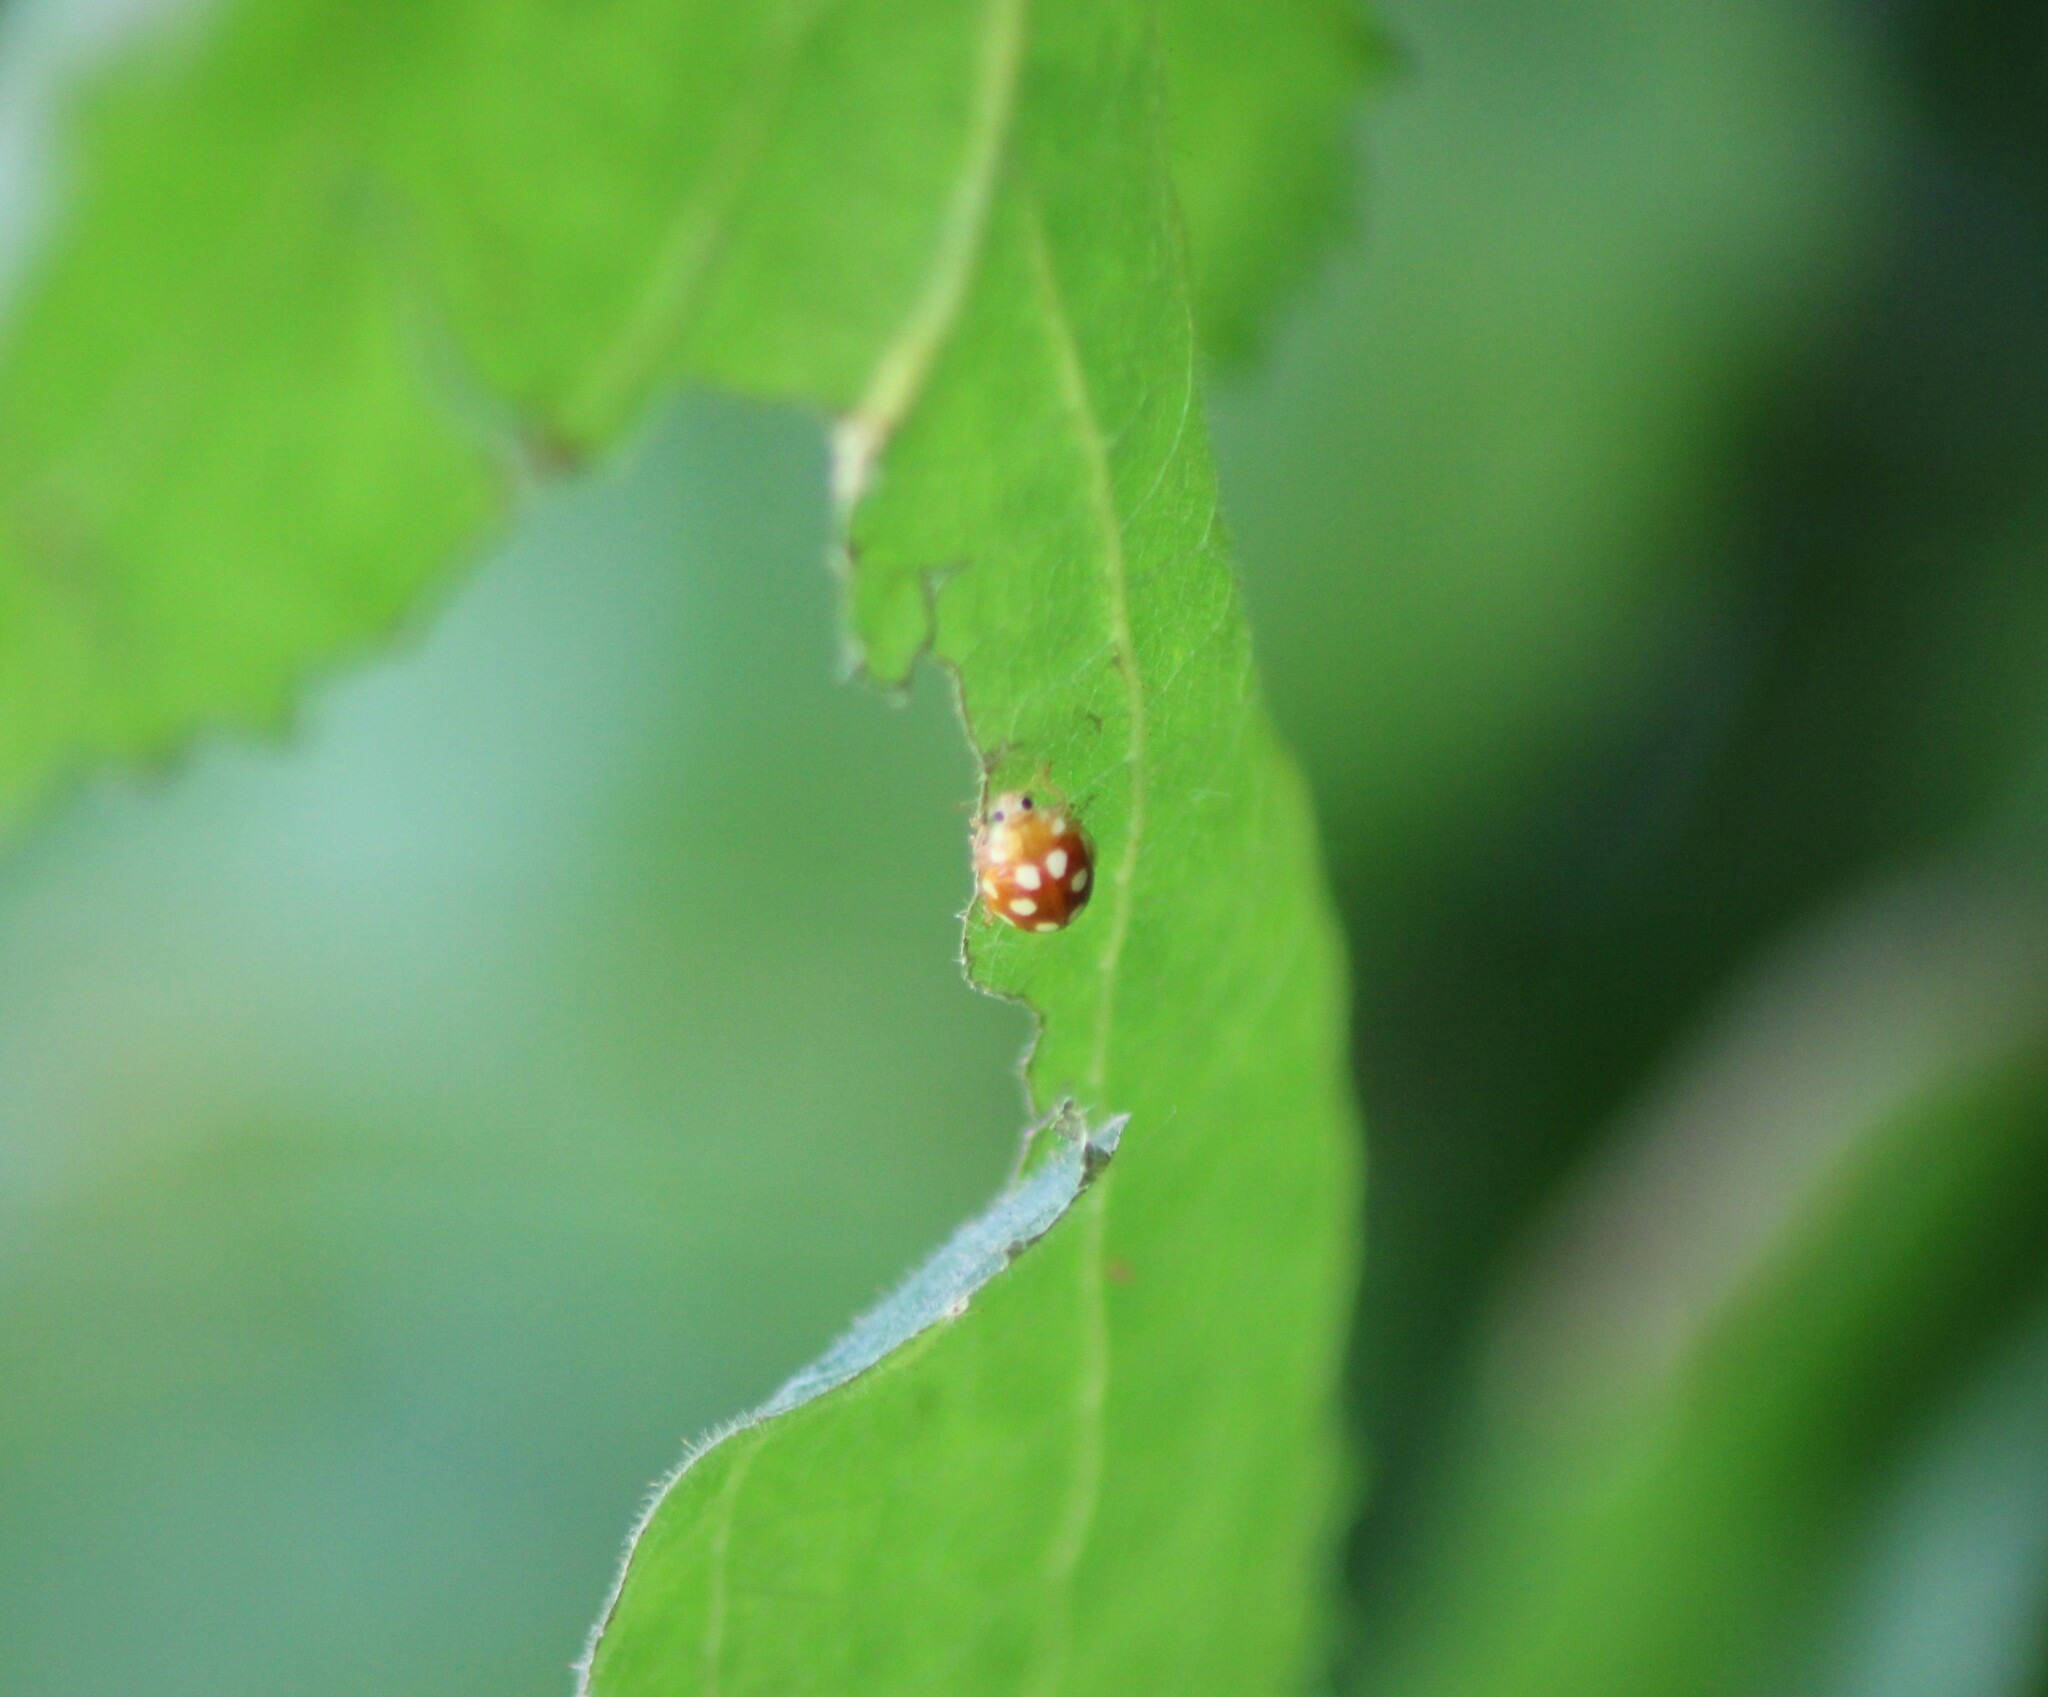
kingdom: Animalia
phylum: Arthropoda
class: Insecta
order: Coleoptera
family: Coccinellidae
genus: Vibidia
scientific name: Vibidia duodecimguttata
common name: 12-spot ladybird
